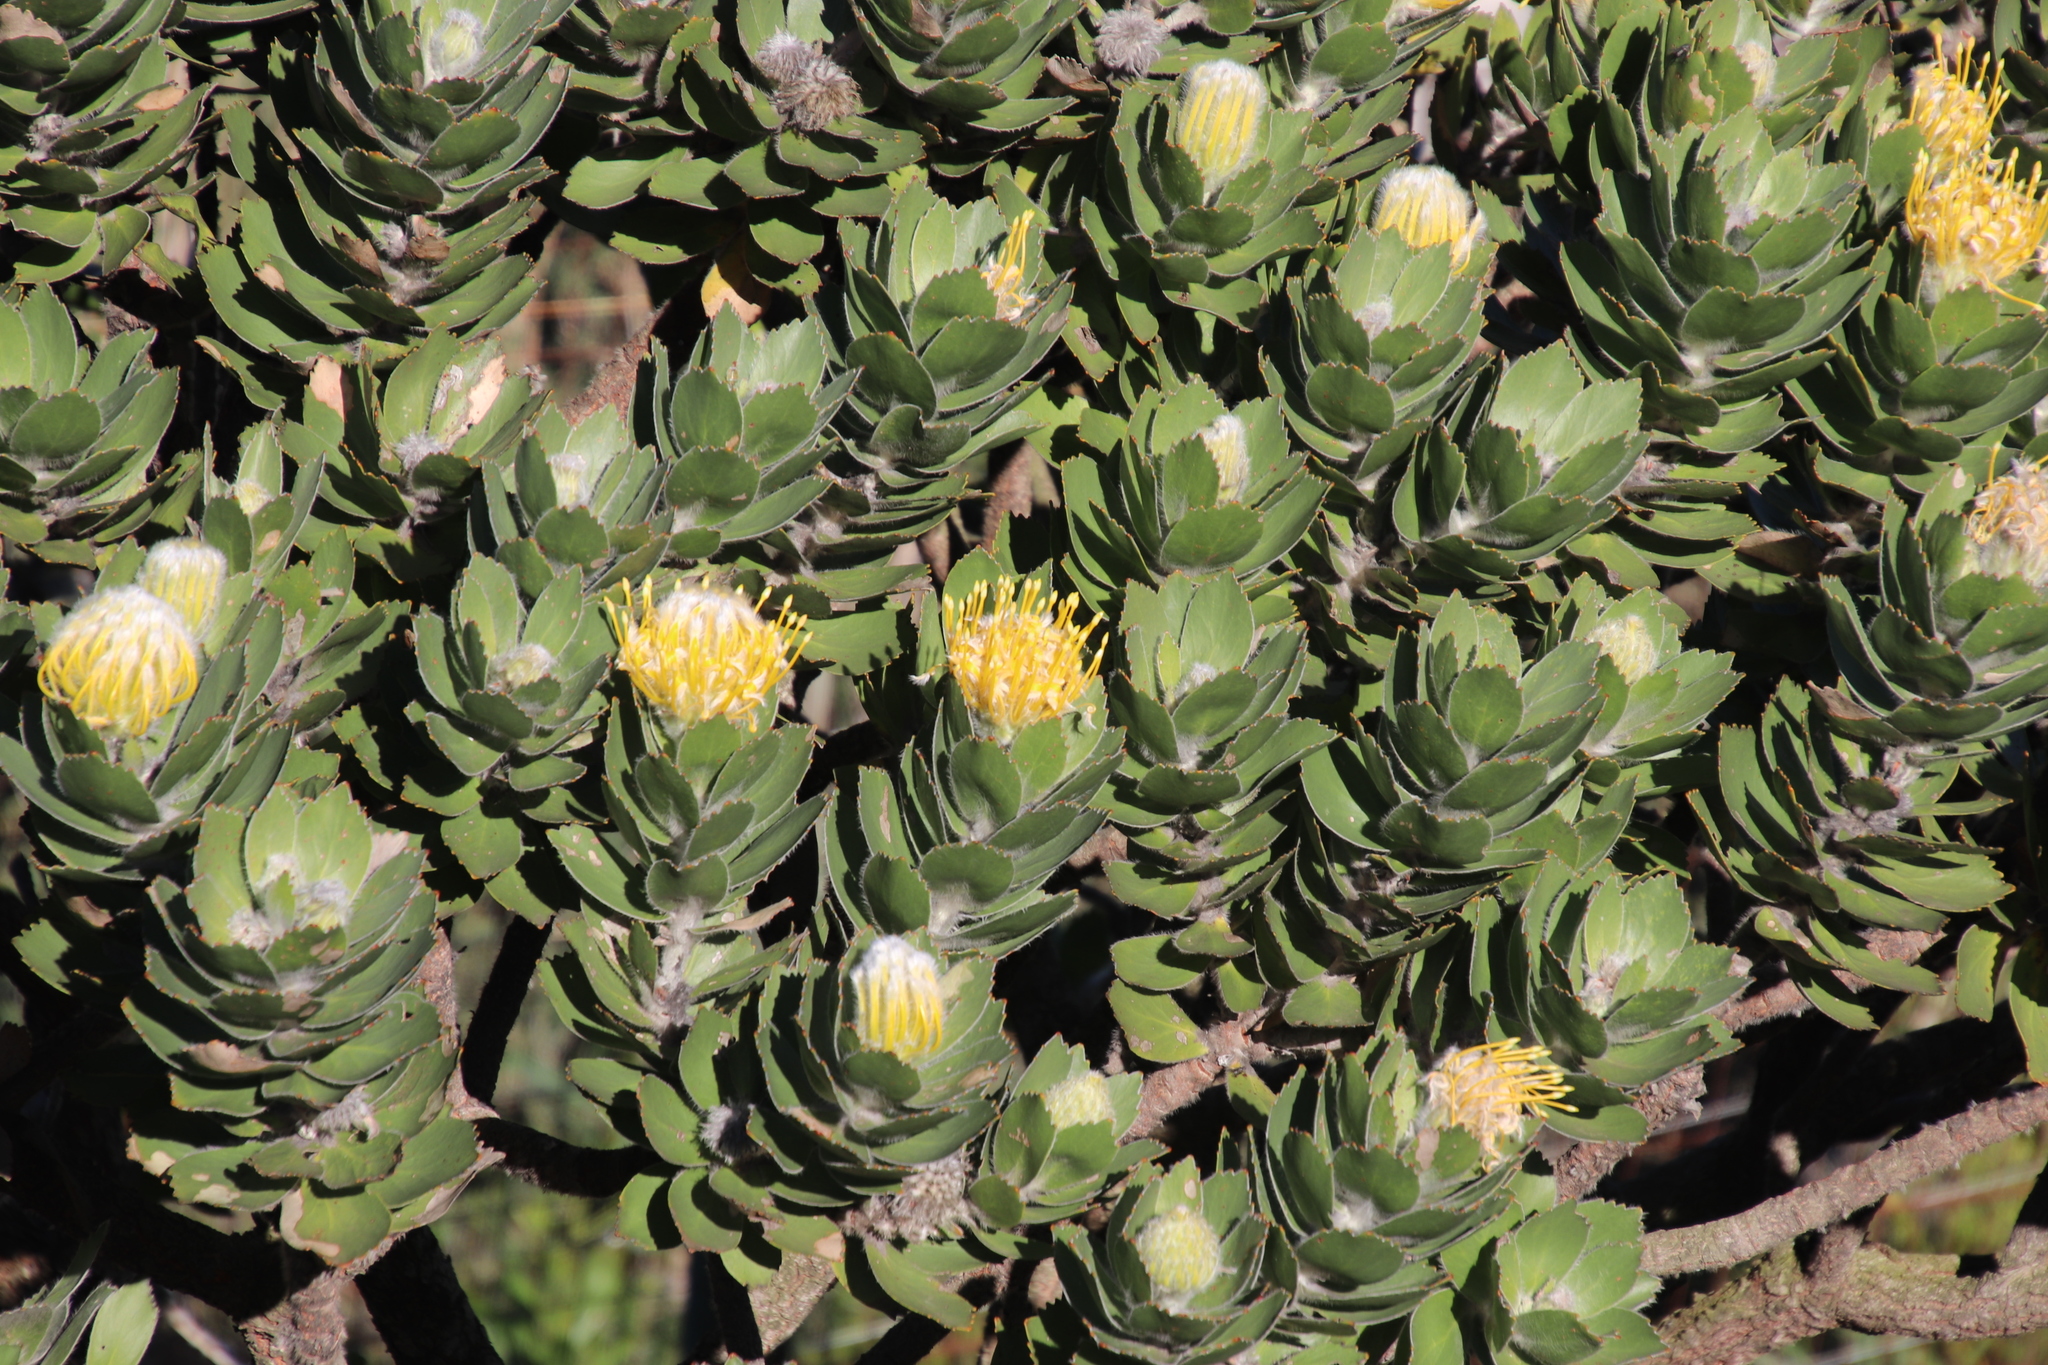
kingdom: Plantae
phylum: Tracheophyta
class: Magnoliopsida
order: Proteales
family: Proteaceae
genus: Leucospermum
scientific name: Leucospermum conocarpodendron
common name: Tree pincushion
